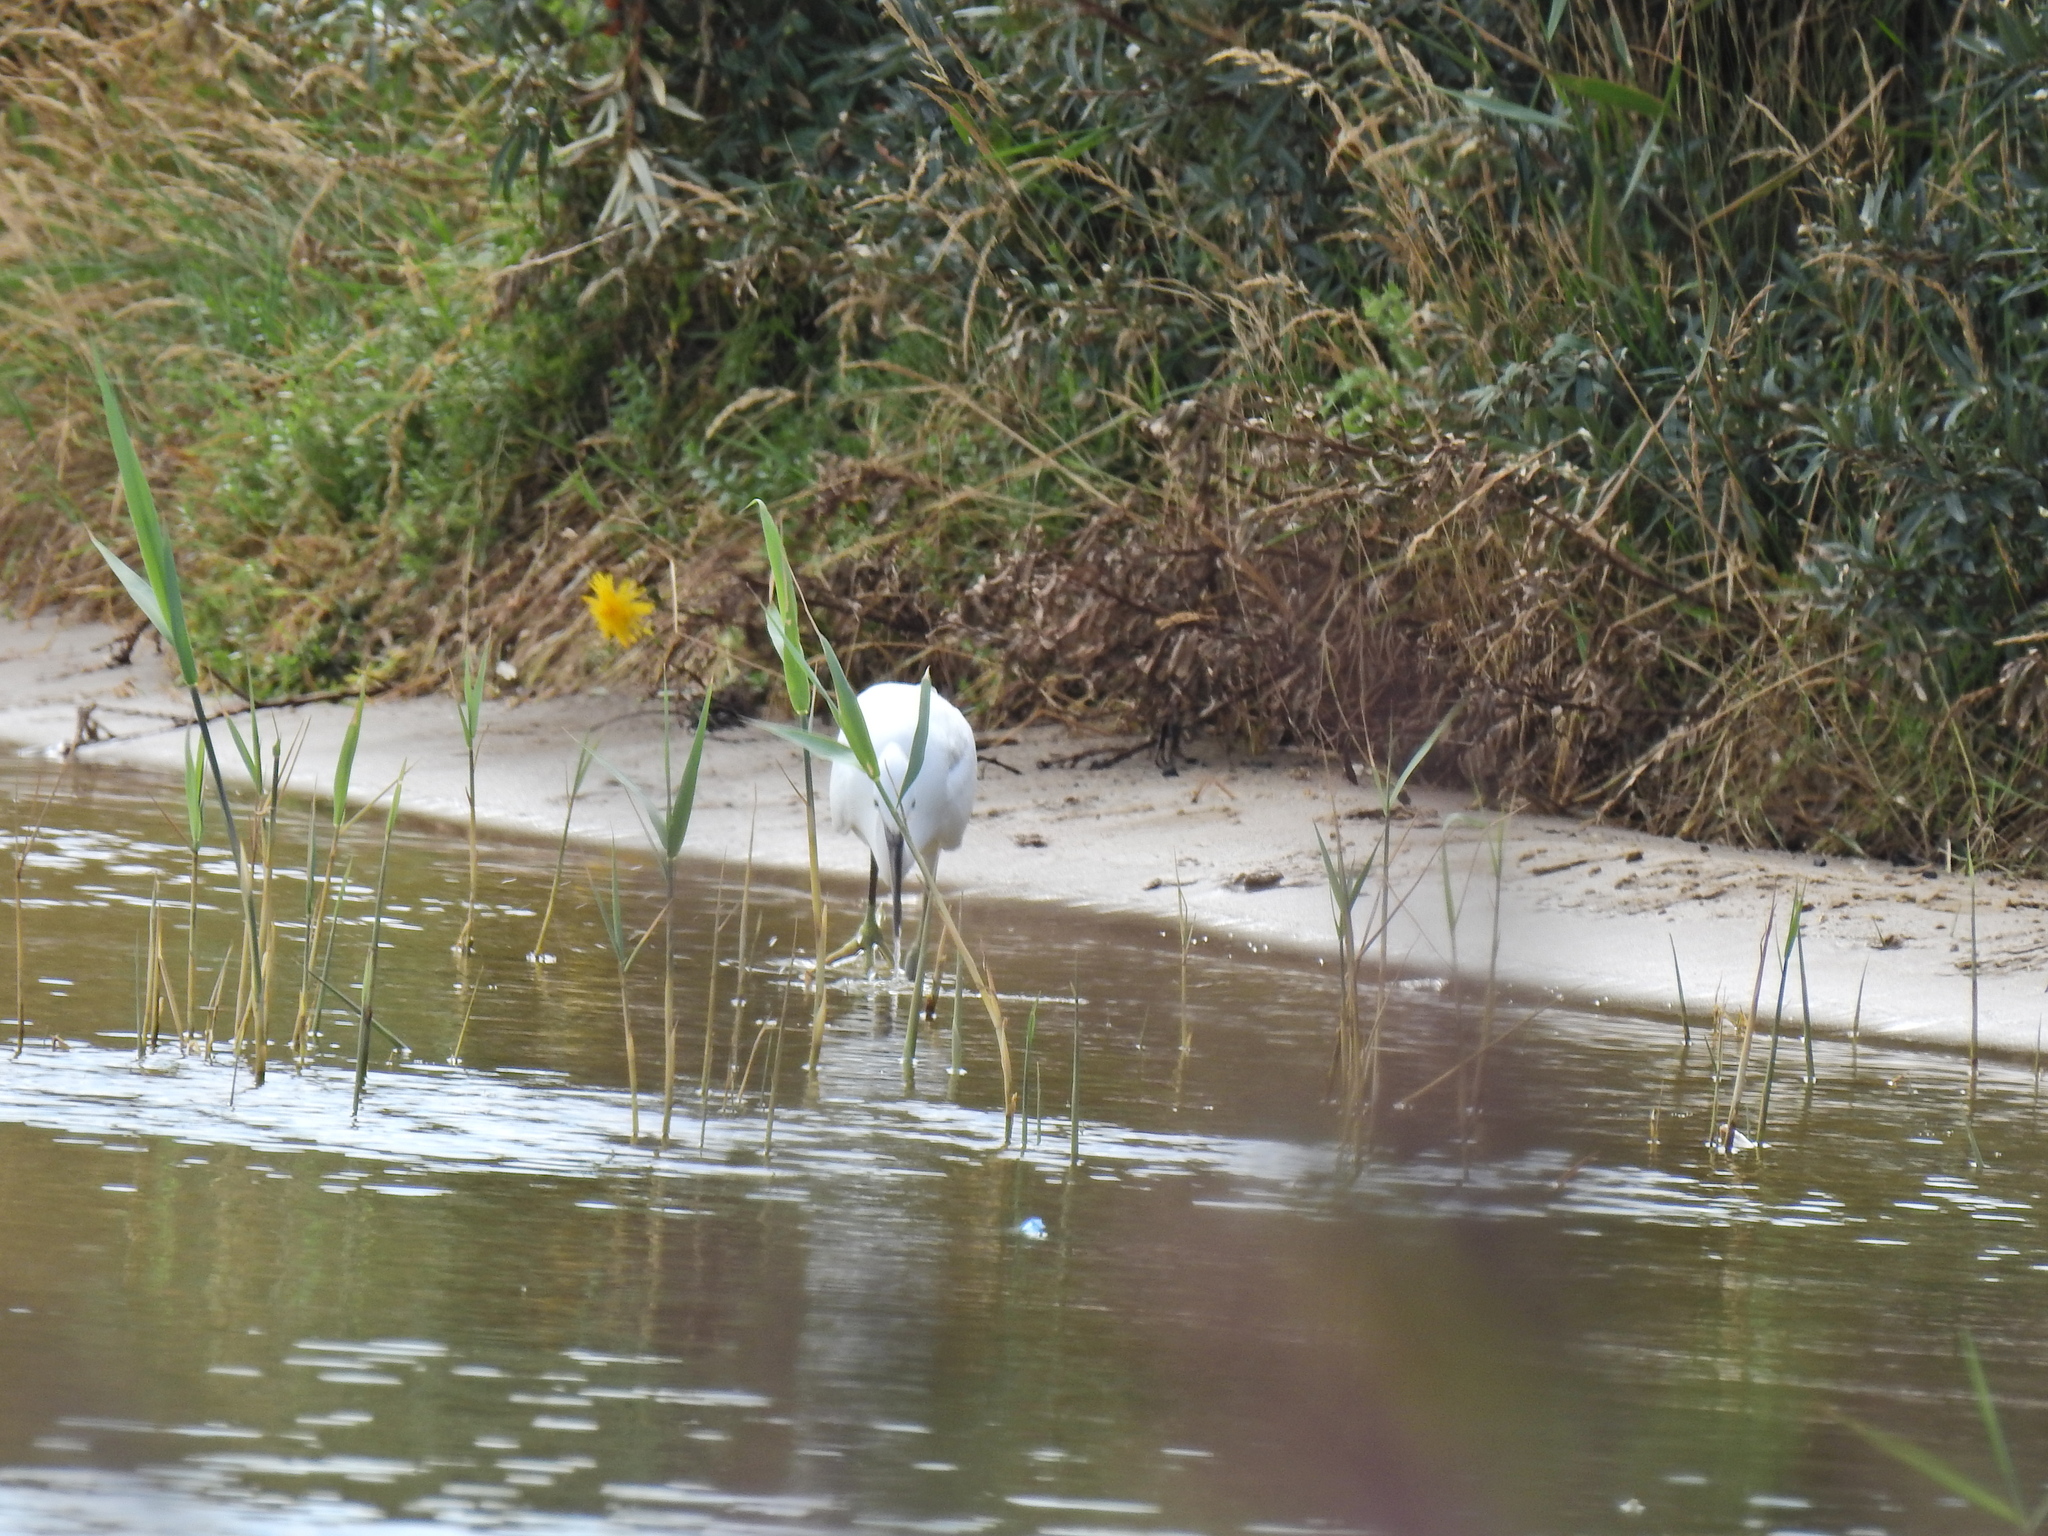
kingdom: Animalia
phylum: Chordata
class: Aves
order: Pelecaniformes
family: Ardeidae
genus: Egretta
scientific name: Egretta garzetta
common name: Little egret
